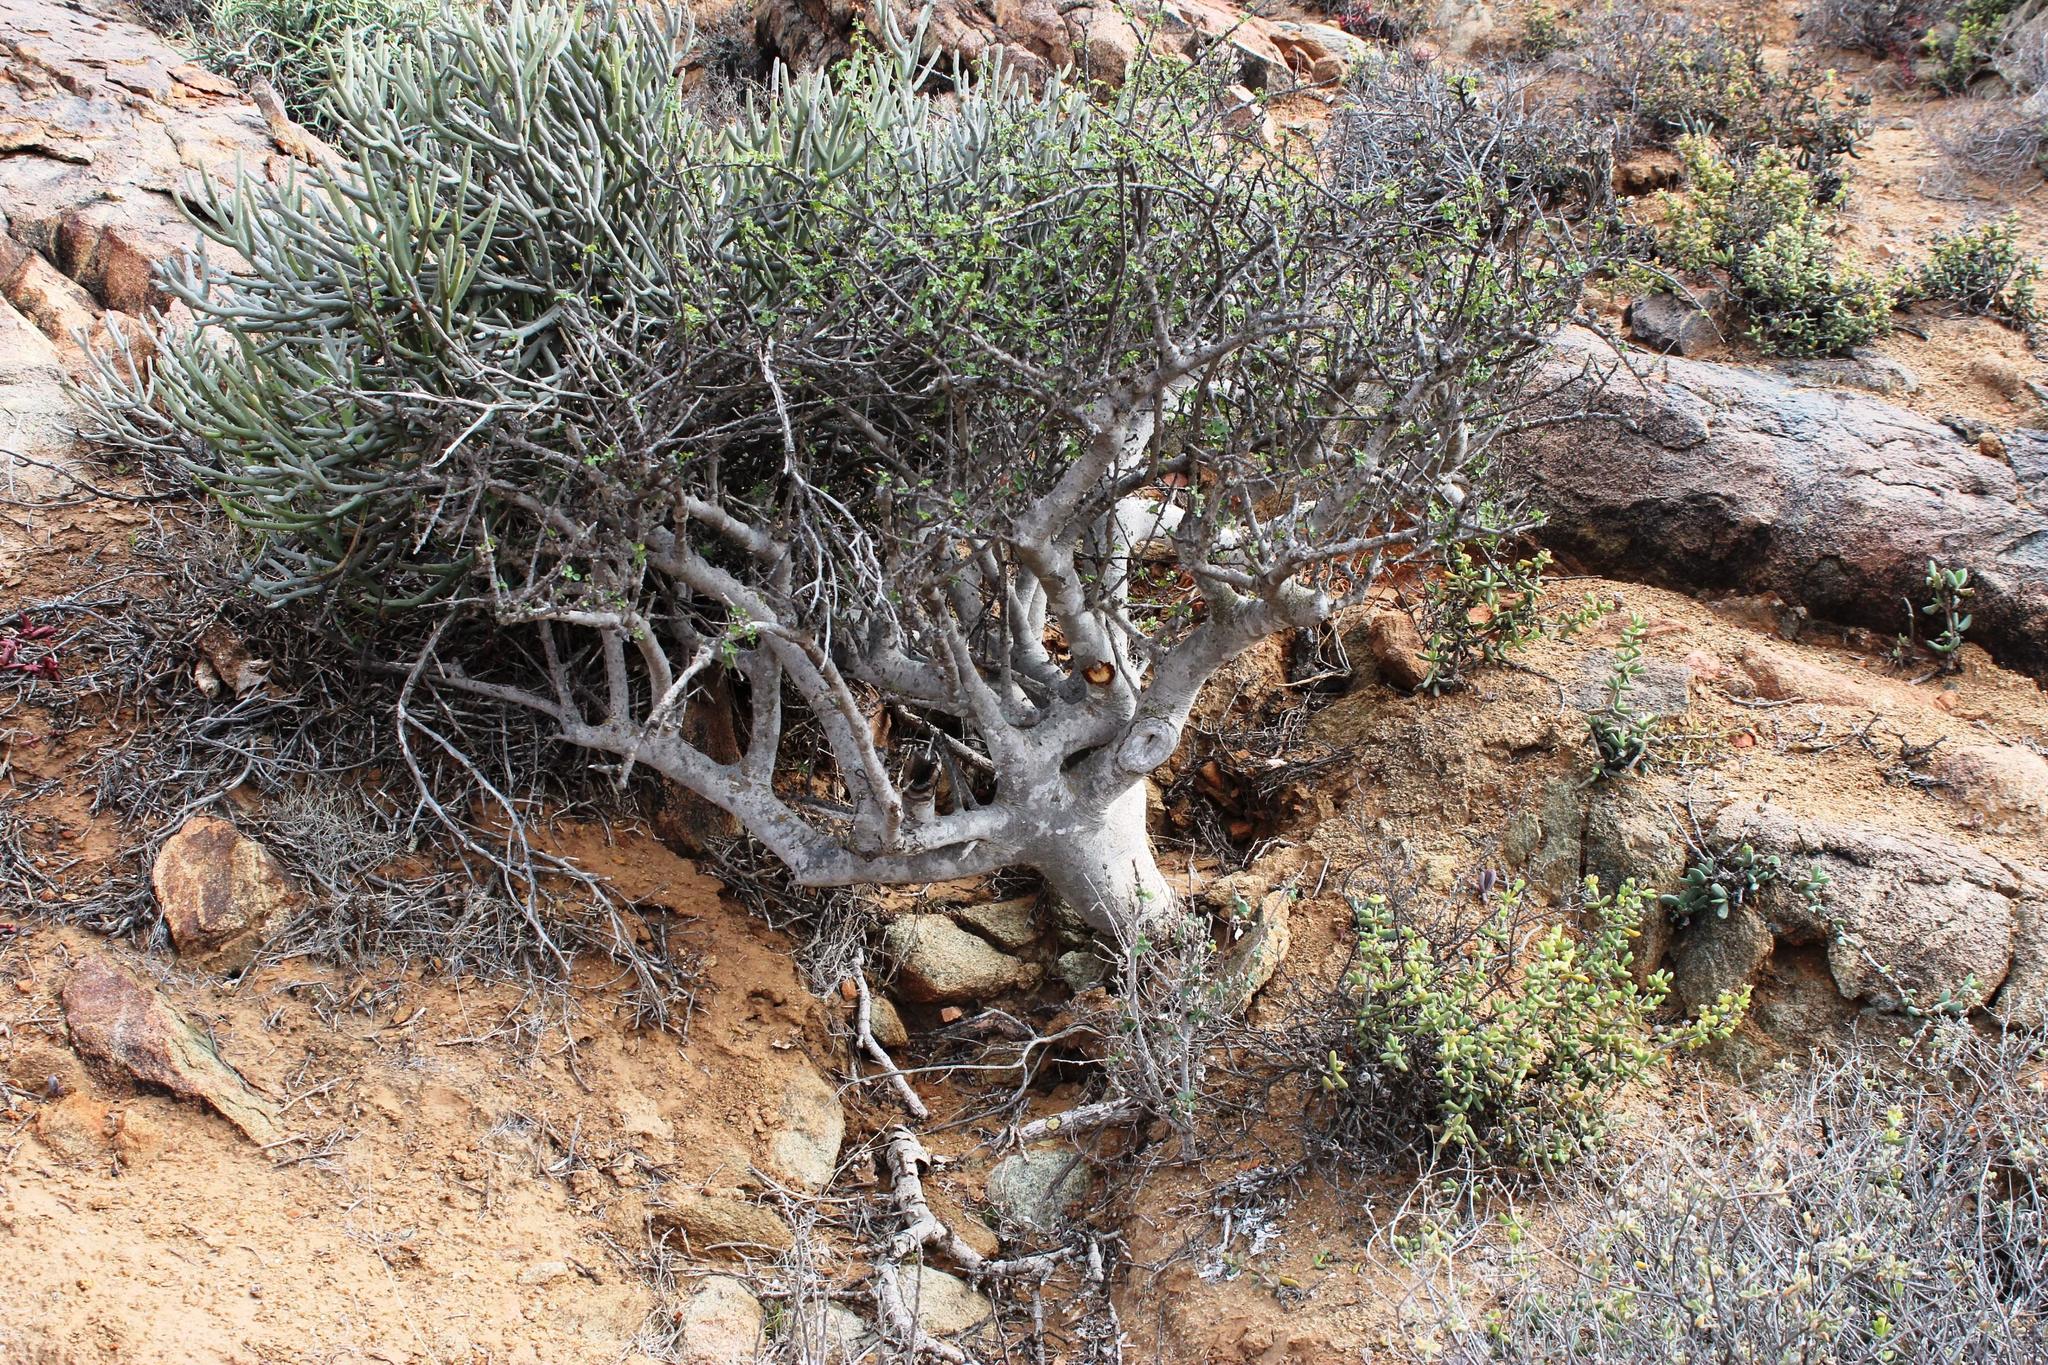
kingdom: Plantae
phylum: Tracheophyta
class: Magnoliopsida
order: Sapindales
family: Burseraceae
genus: Commiphora
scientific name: Commiphora capensis
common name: Namaqua commiphora
